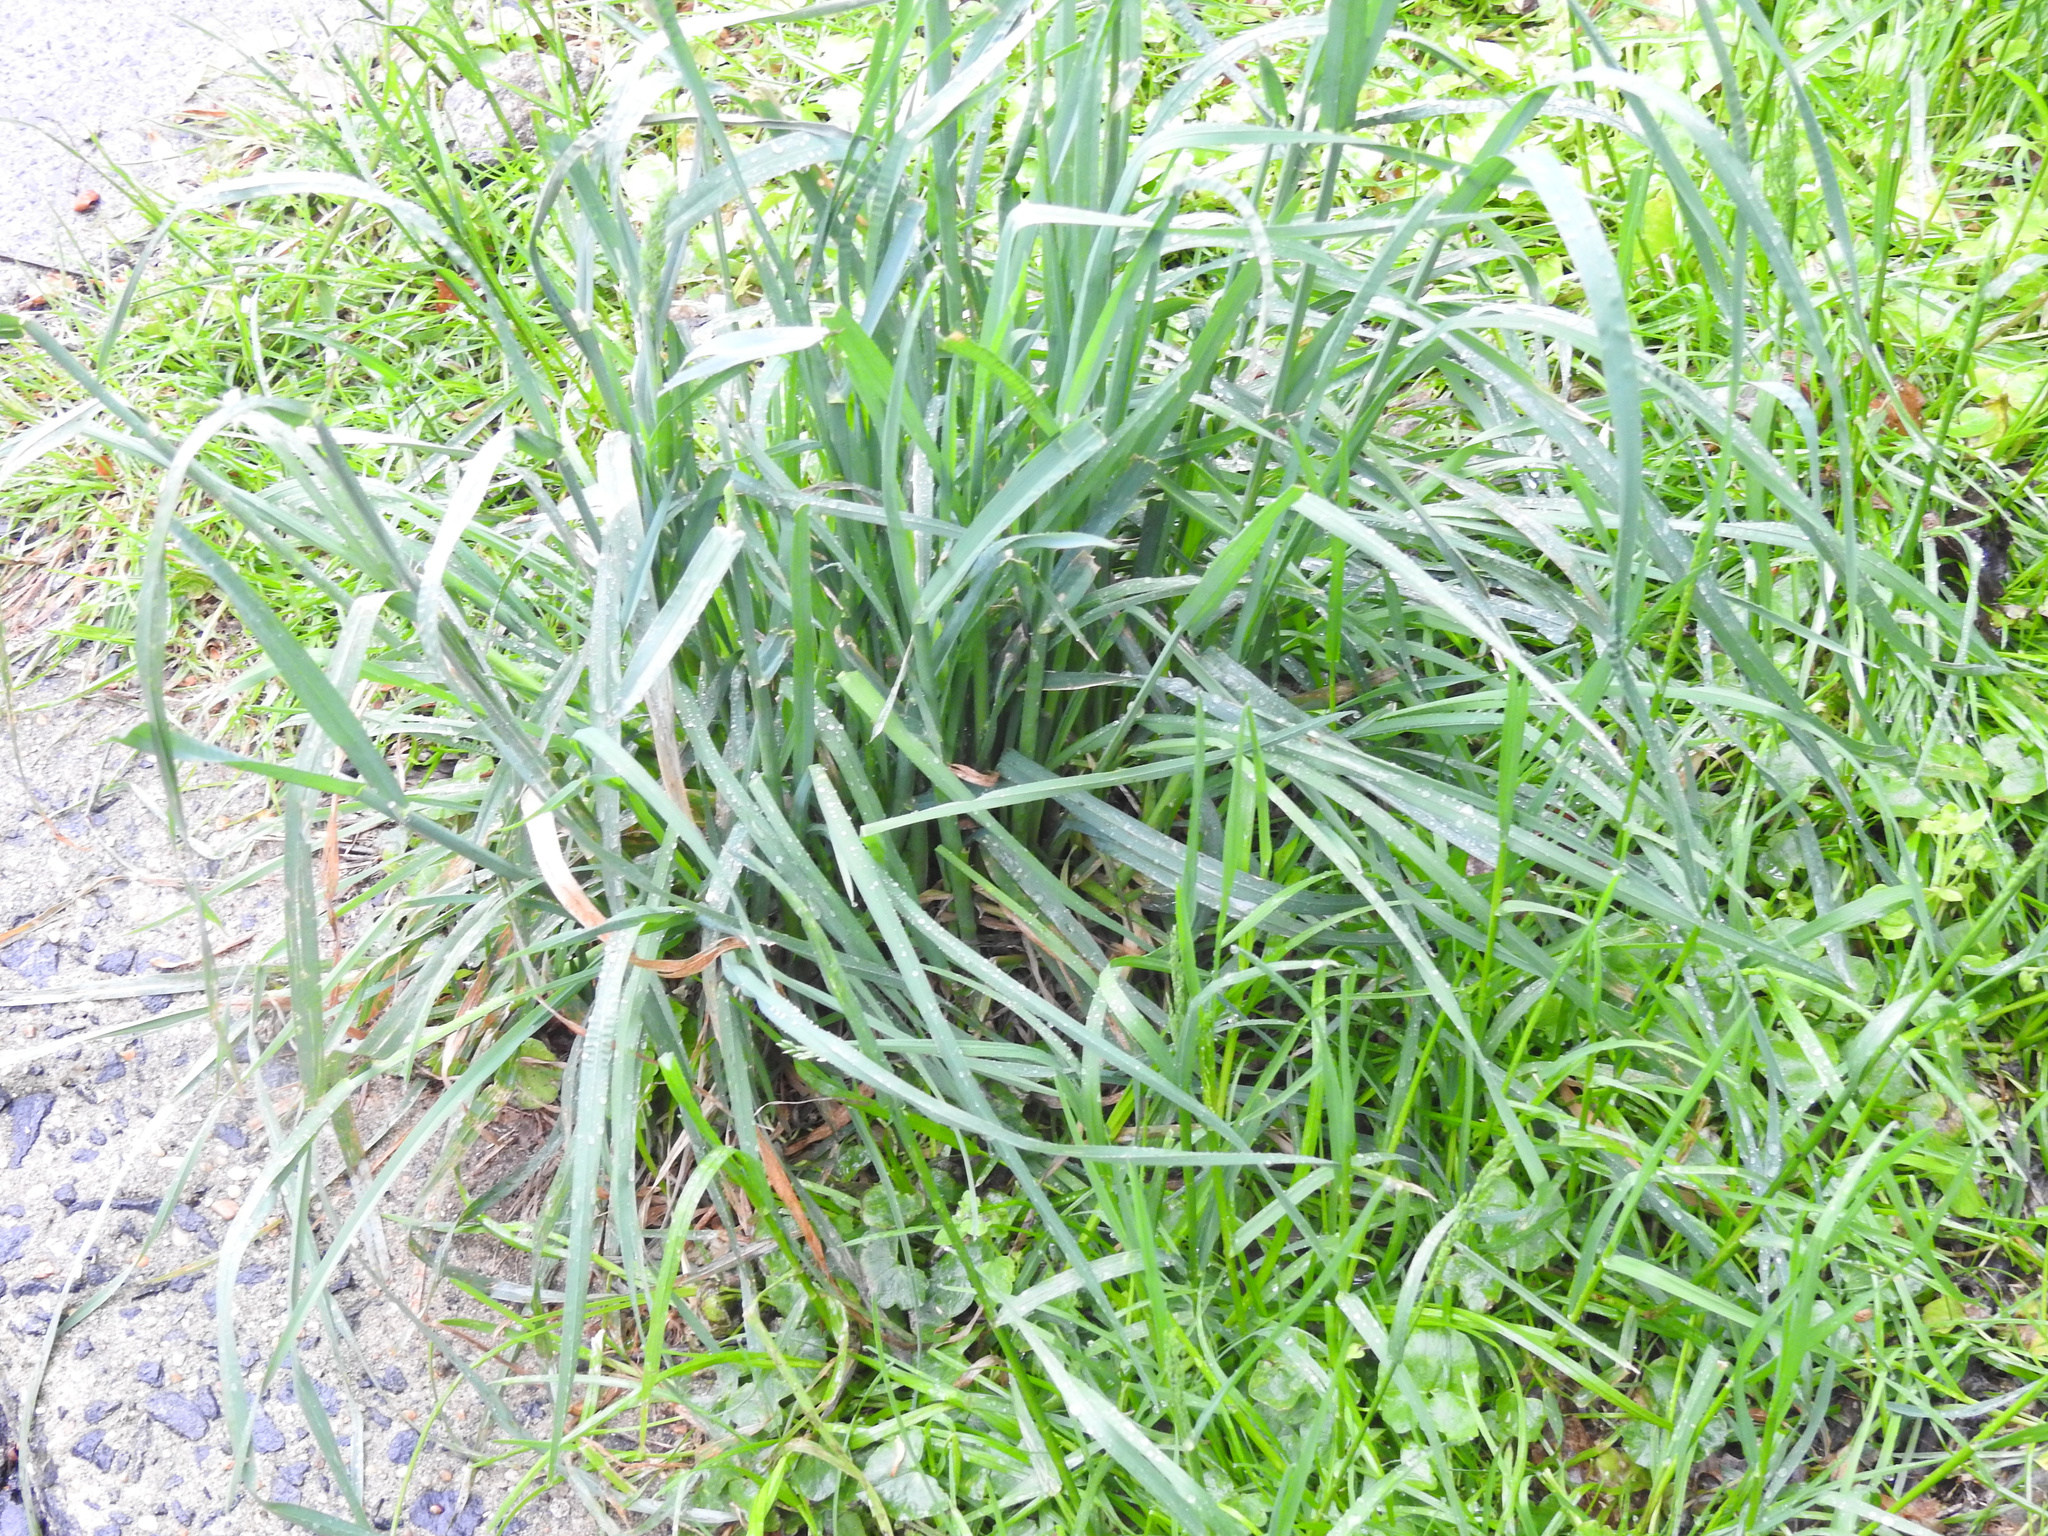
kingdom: Plantae
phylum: Tracheophyta
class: Liliopsida
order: Poales
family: Poaceae
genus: Dactylis
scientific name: Dactylis glomerata
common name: Orchardgrass
